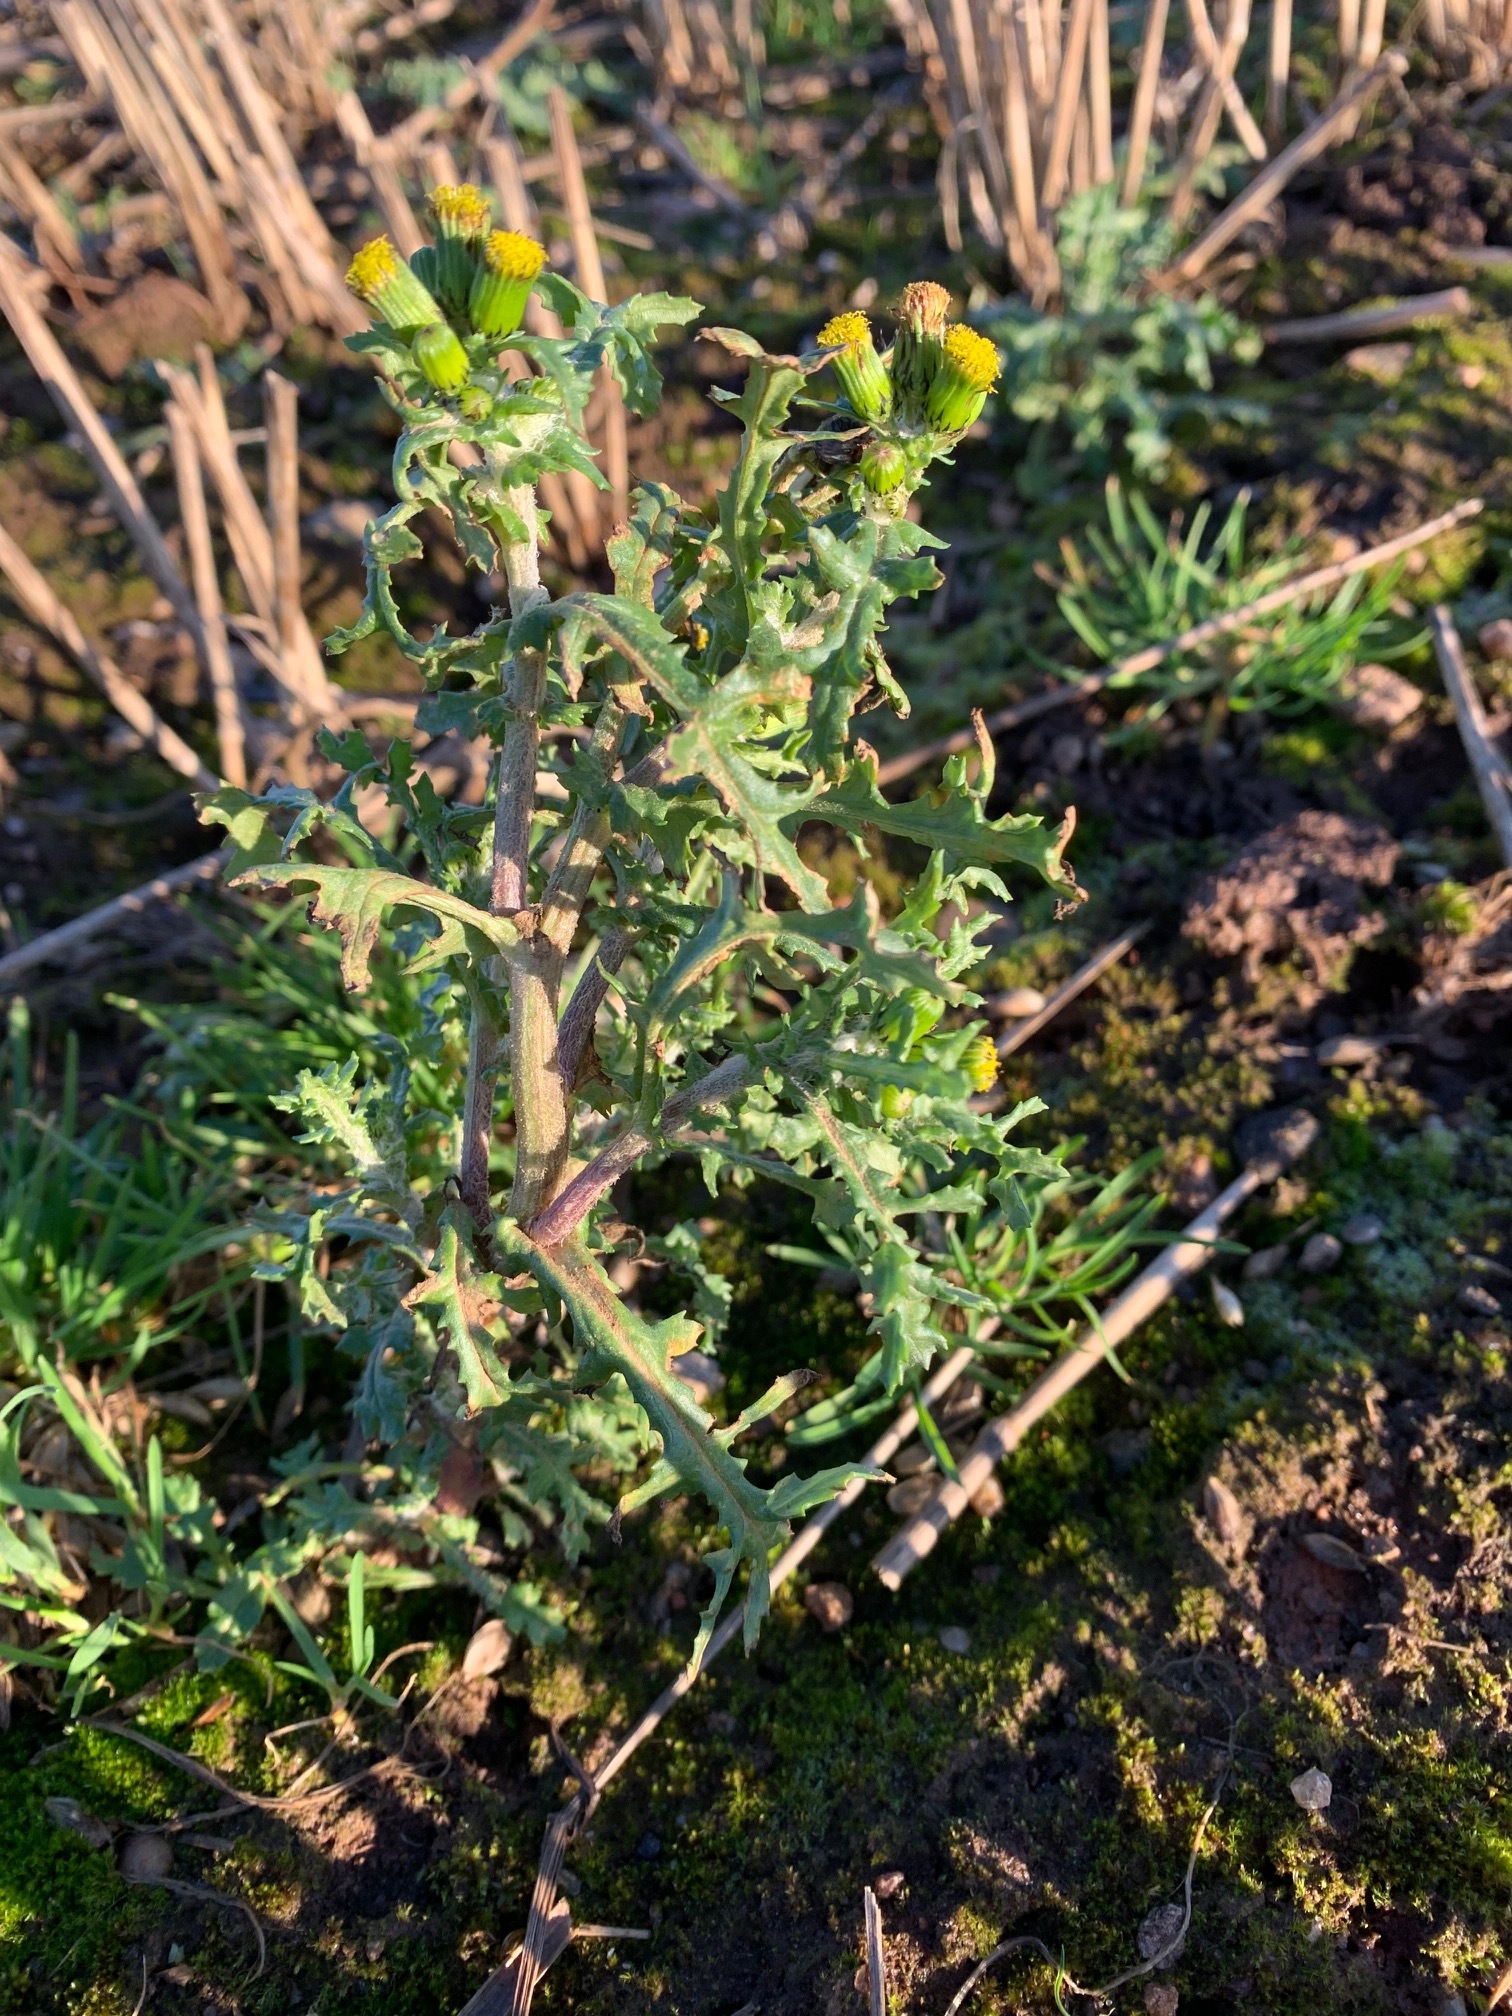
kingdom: Plantae
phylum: Tracheophyta
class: Magnoliopsida
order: Asterales
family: Asteraceae
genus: Senecio
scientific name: Senecio vulgaris
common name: Old-man-in-the-spring
